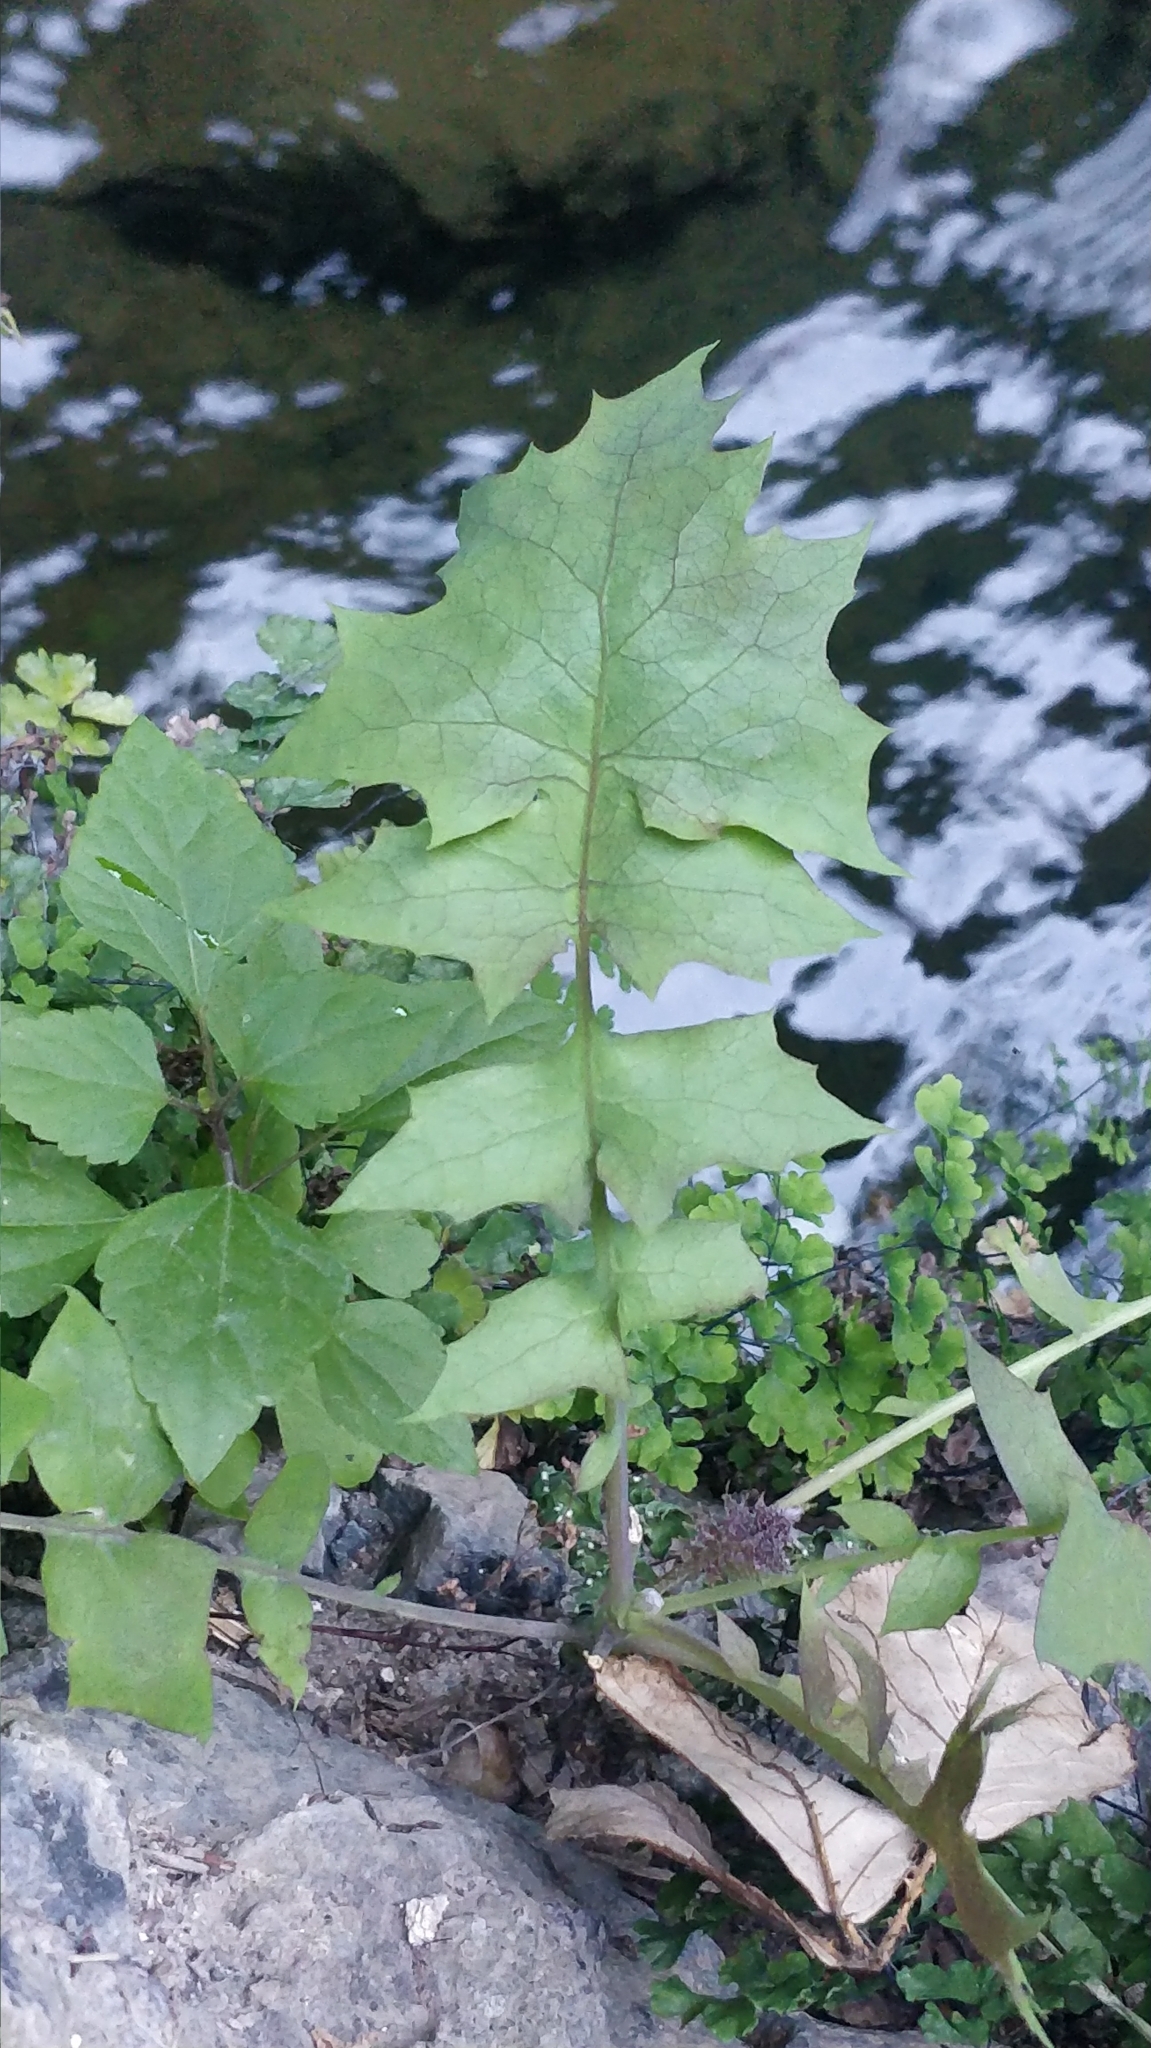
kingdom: Plantae
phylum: Tracheophyta
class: Magnoliopsida
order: Asterales
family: Asteraceae
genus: Sonchus
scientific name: Sonchus fauces-orci
